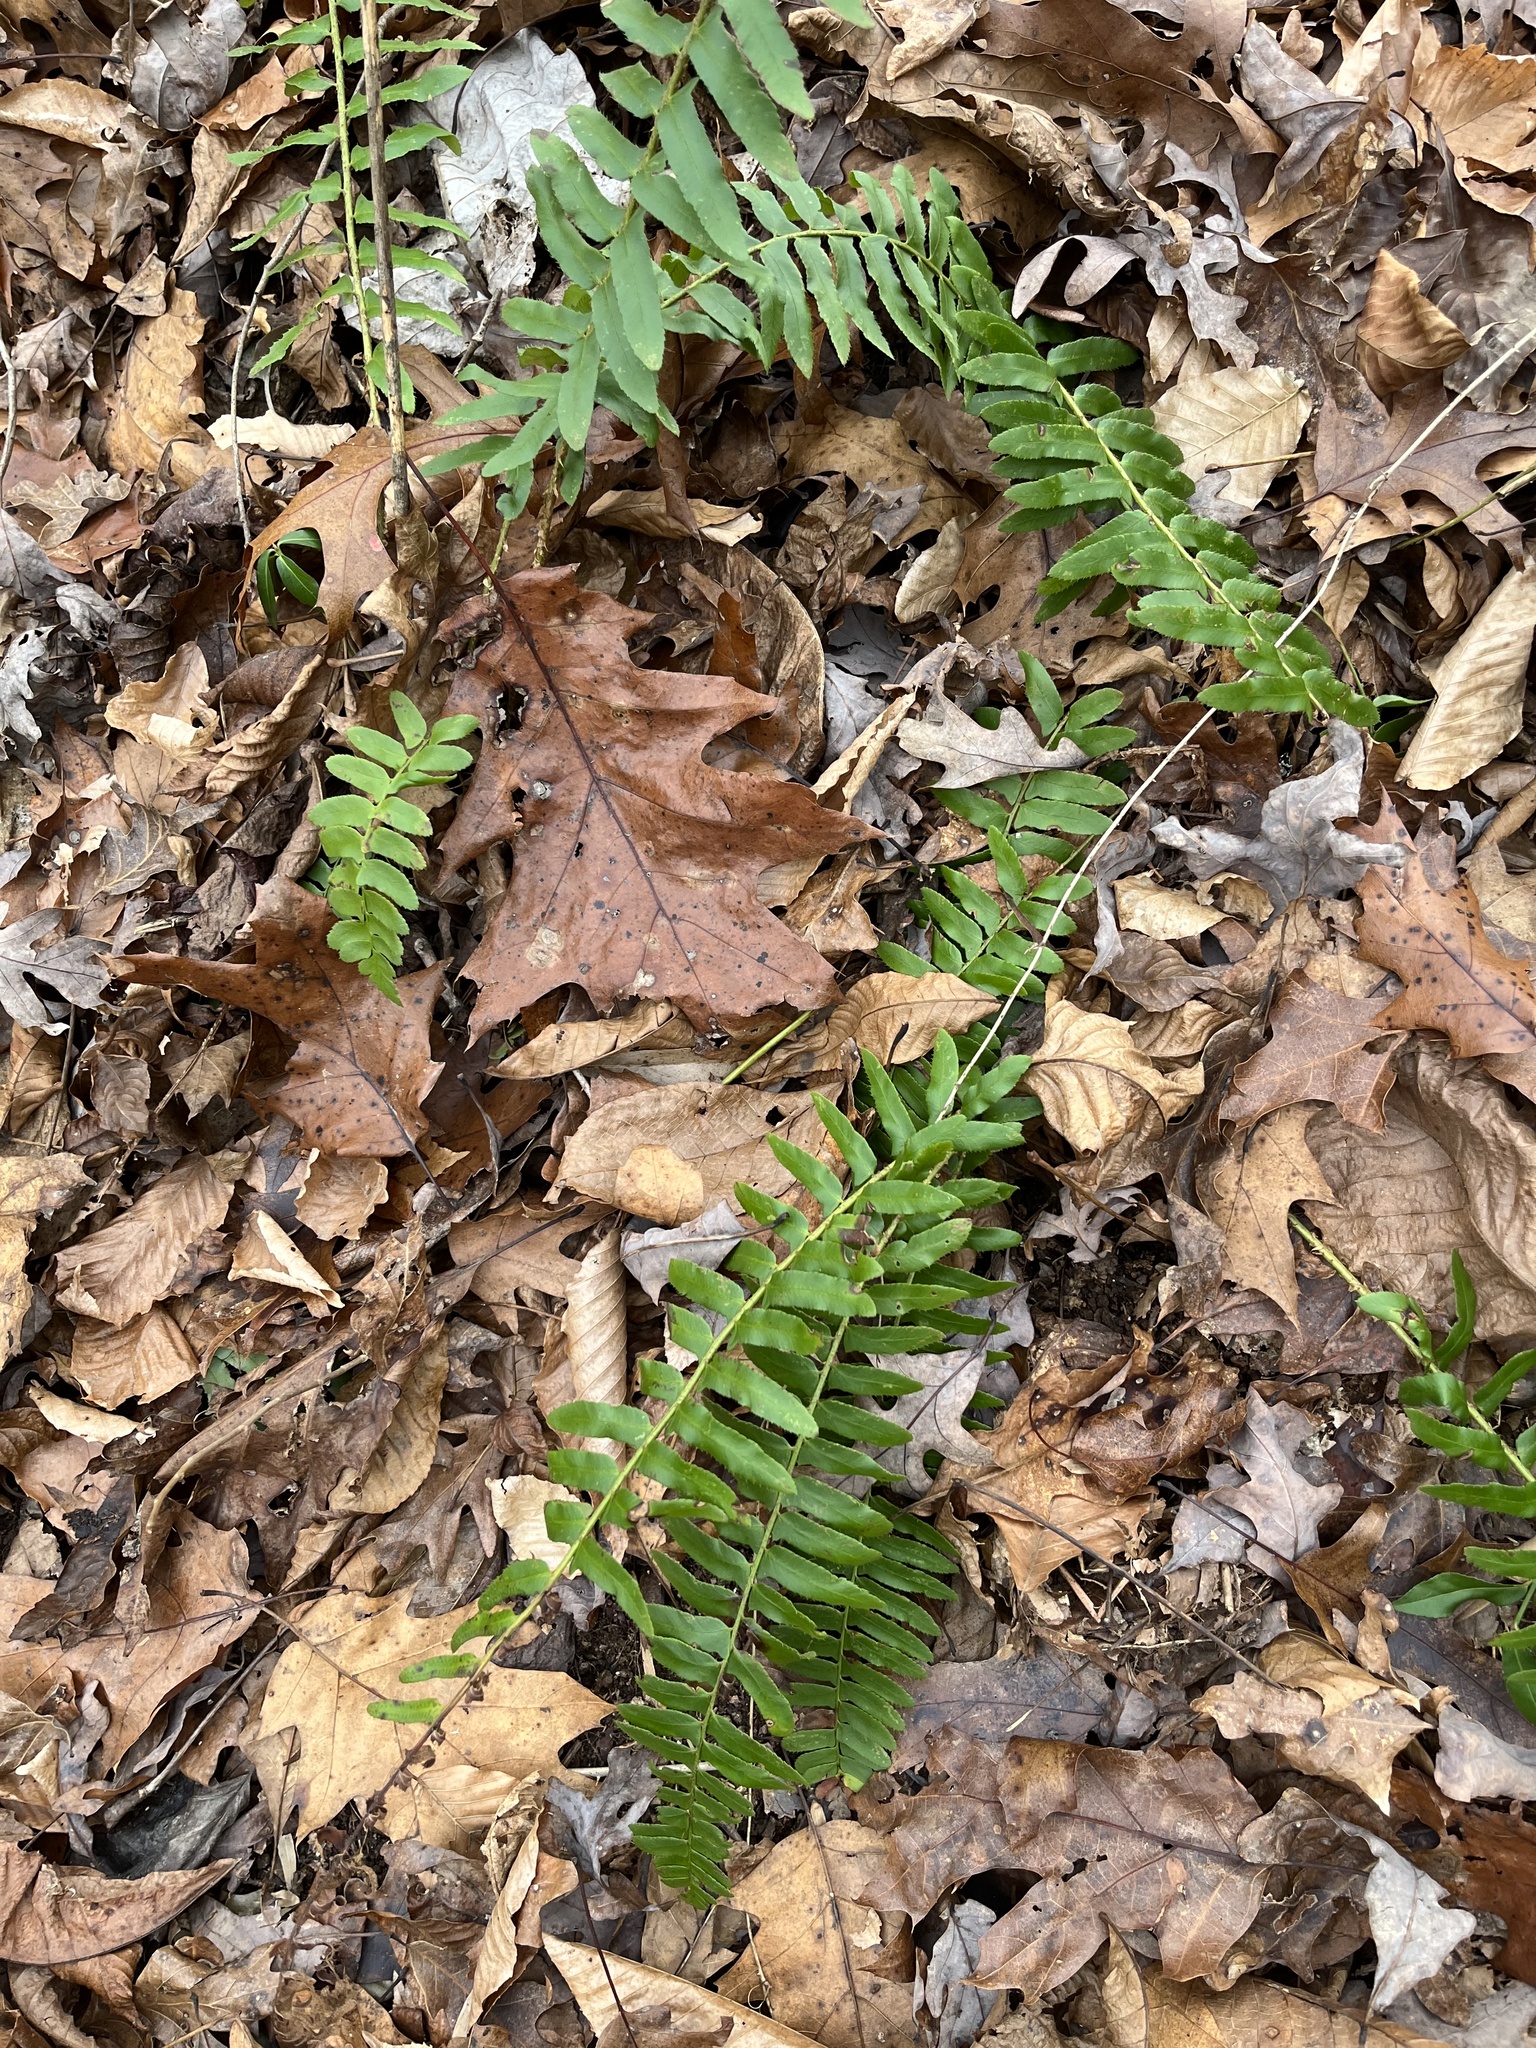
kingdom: Plantae
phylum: Tracheophyta
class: Polypodiopsida
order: Polypodiales
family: Dryopteridaceae
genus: Polystichum
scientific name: Polystichum acrostichoides
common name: Christmas fern
